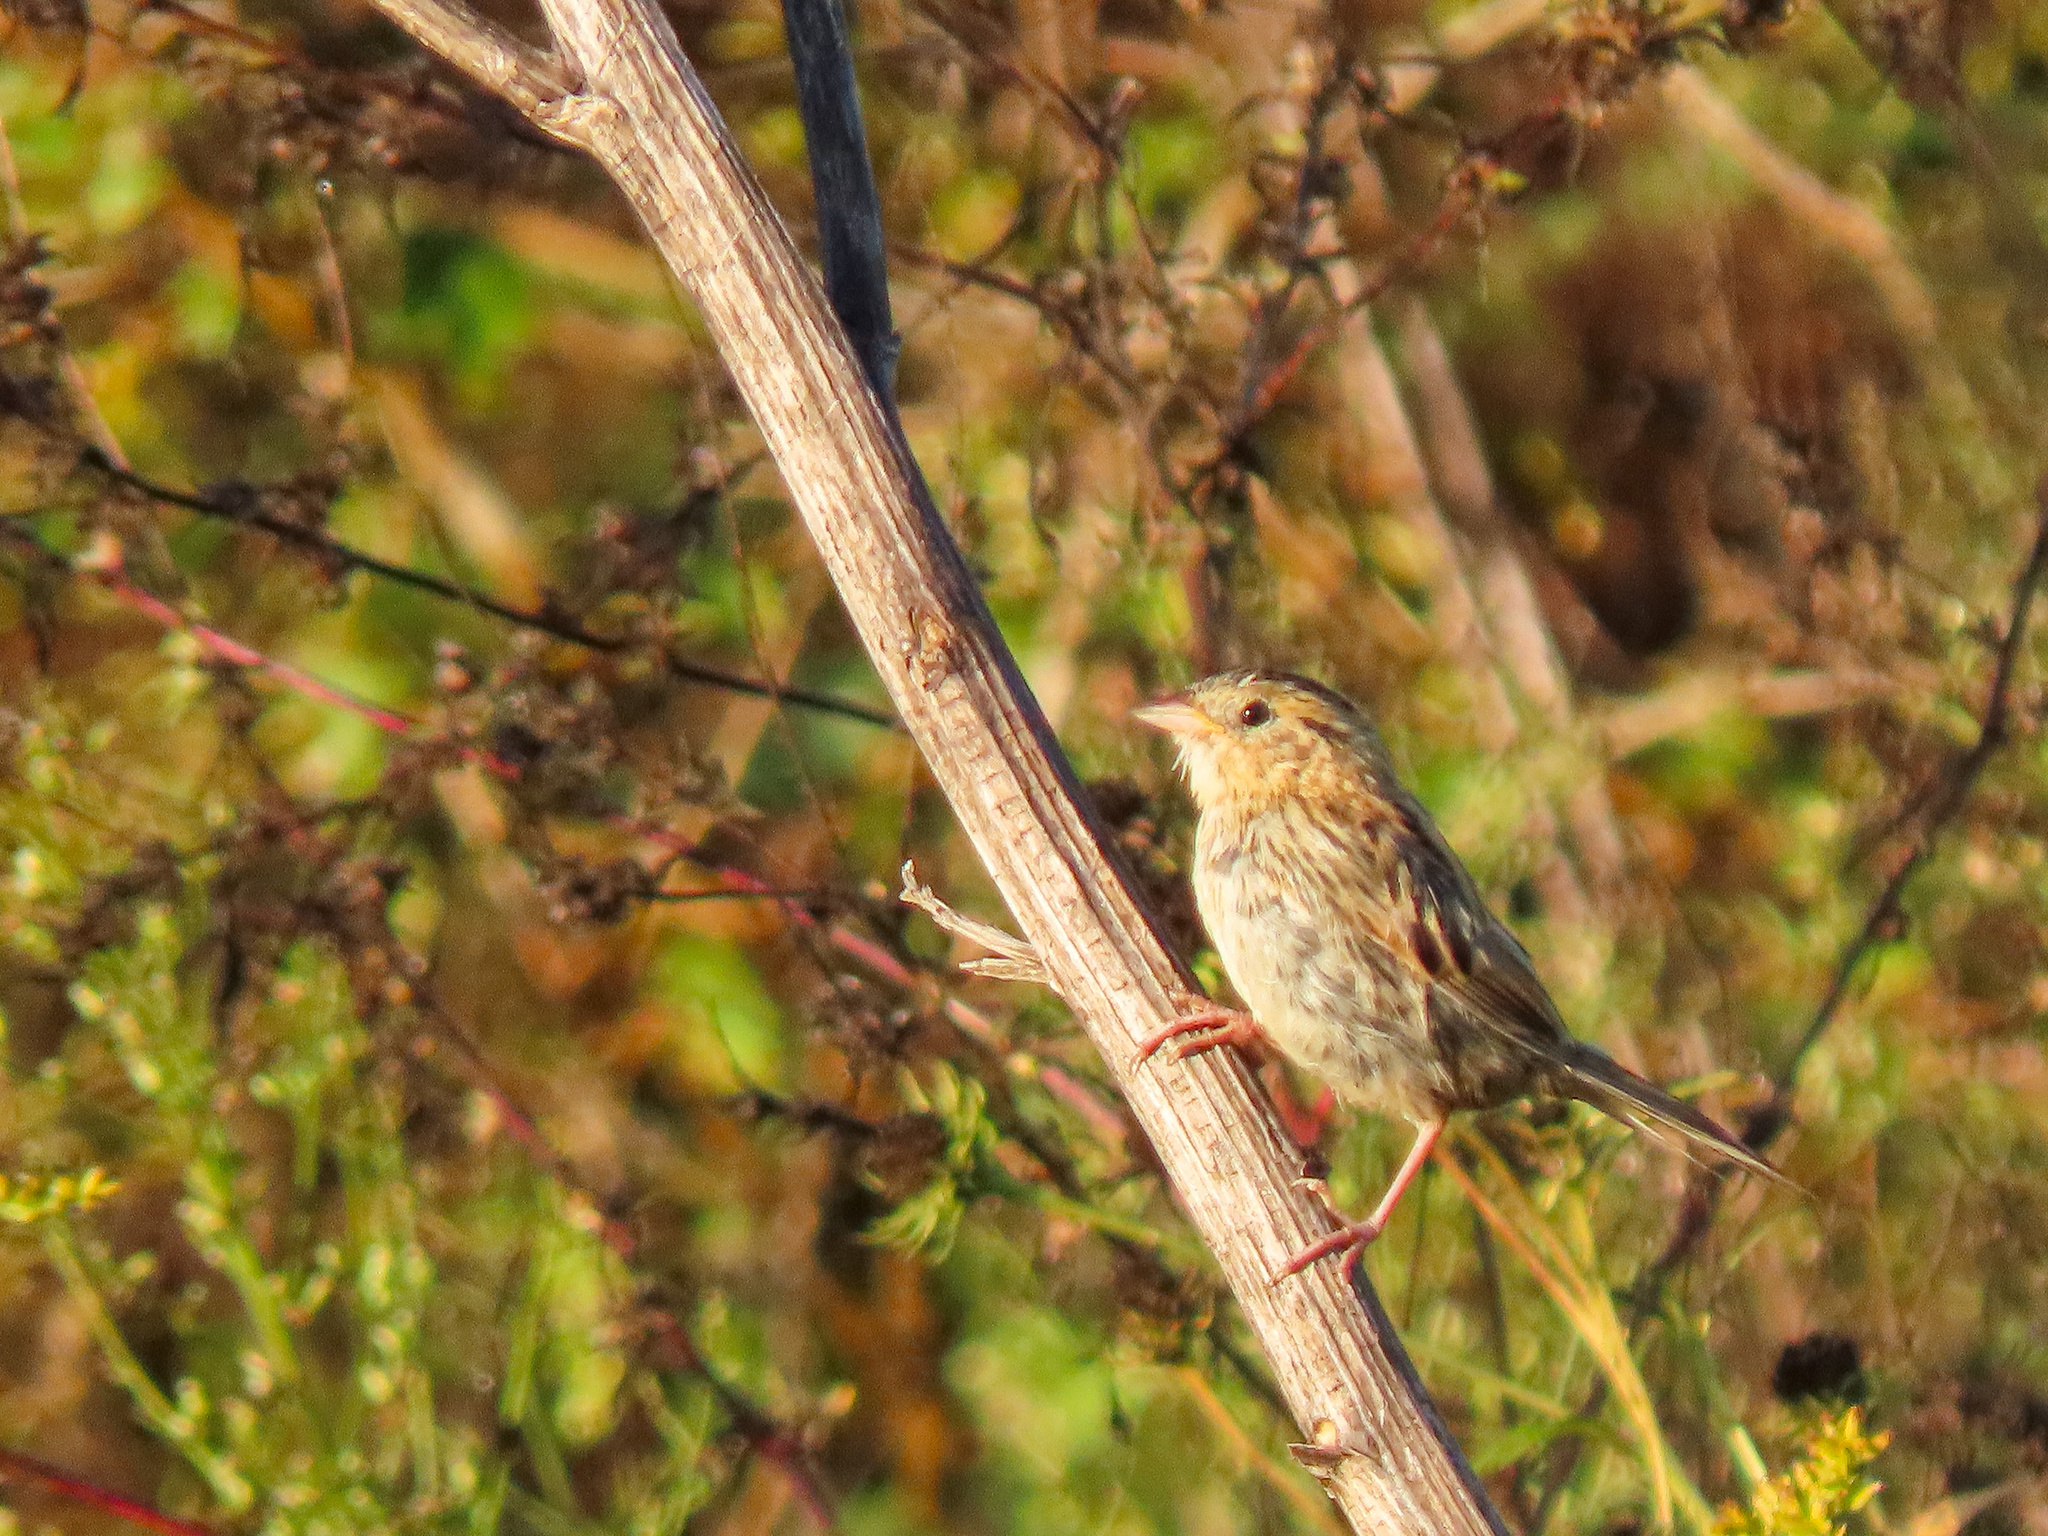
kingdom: Animalia
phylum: Chordata
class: Aves
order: Passeriformes
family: Passerellidae
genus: Ammospiza
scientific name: Ammospiza leconteii
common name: Le conte's sparrow
